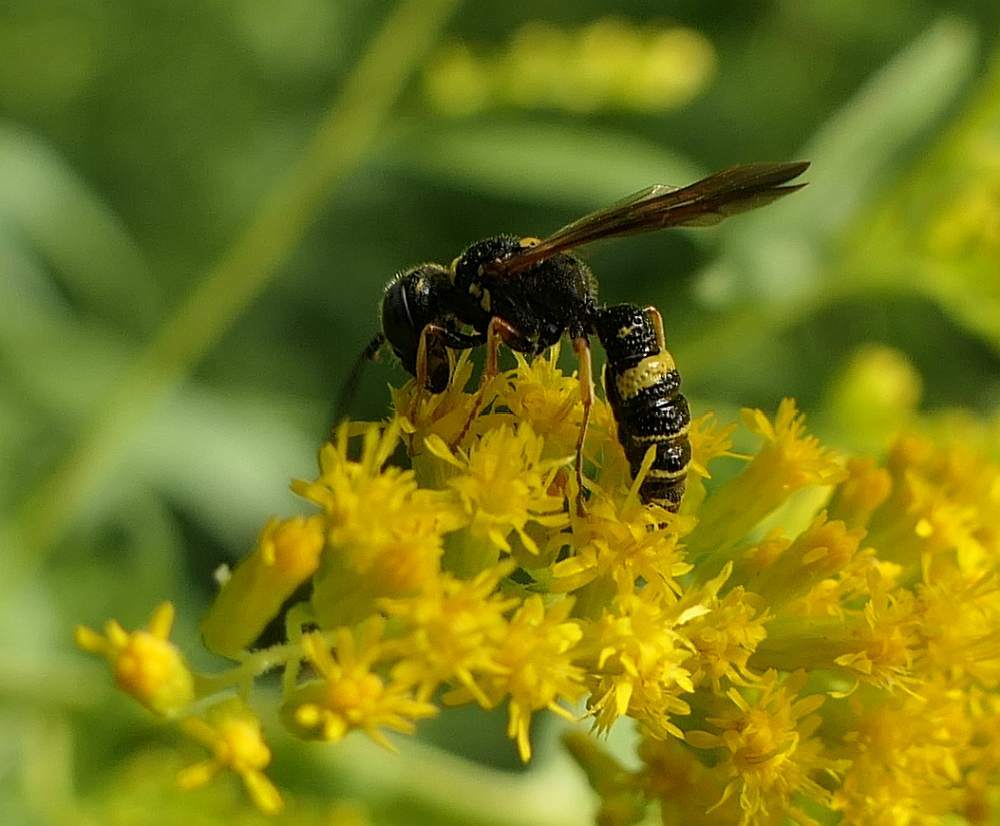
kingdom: Animalia
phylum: Arthropoda
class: Insecta
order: Hymenoptera
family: Crabronidae
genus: Philanthus
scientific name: Philanthus gibbosus
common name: Humped beewolf
